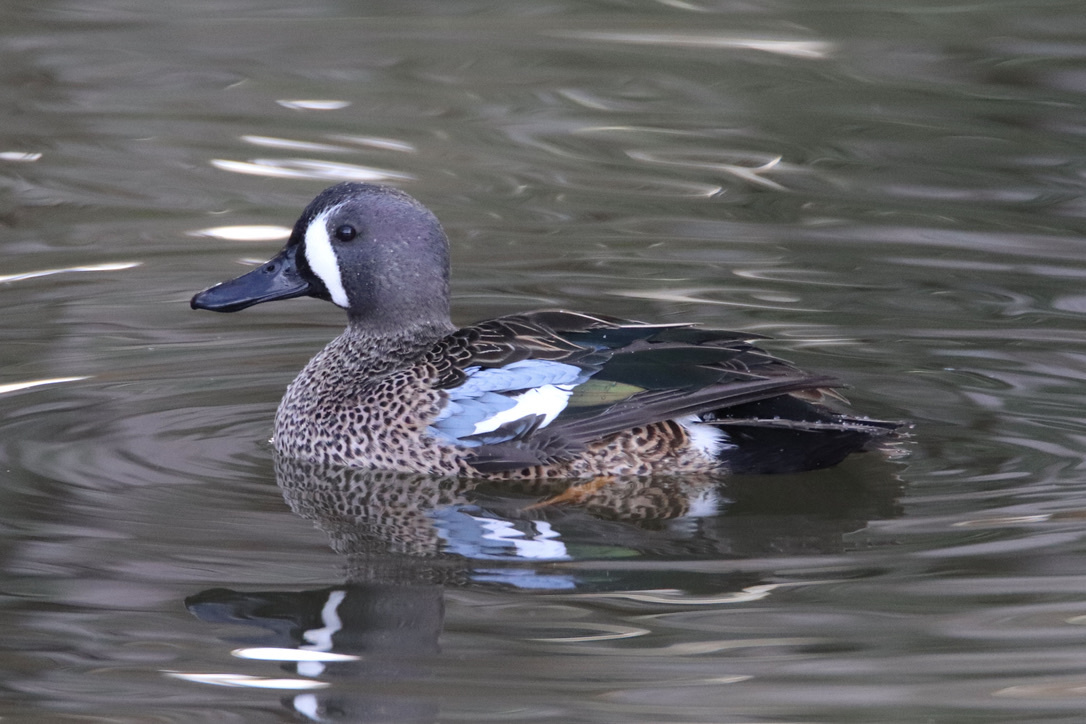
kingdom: Animalia
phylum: Chordata
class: Aves
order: Anseriformes
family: Anatidae
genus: Spatula
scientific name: Spatula discors
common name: Blue-winged teal
